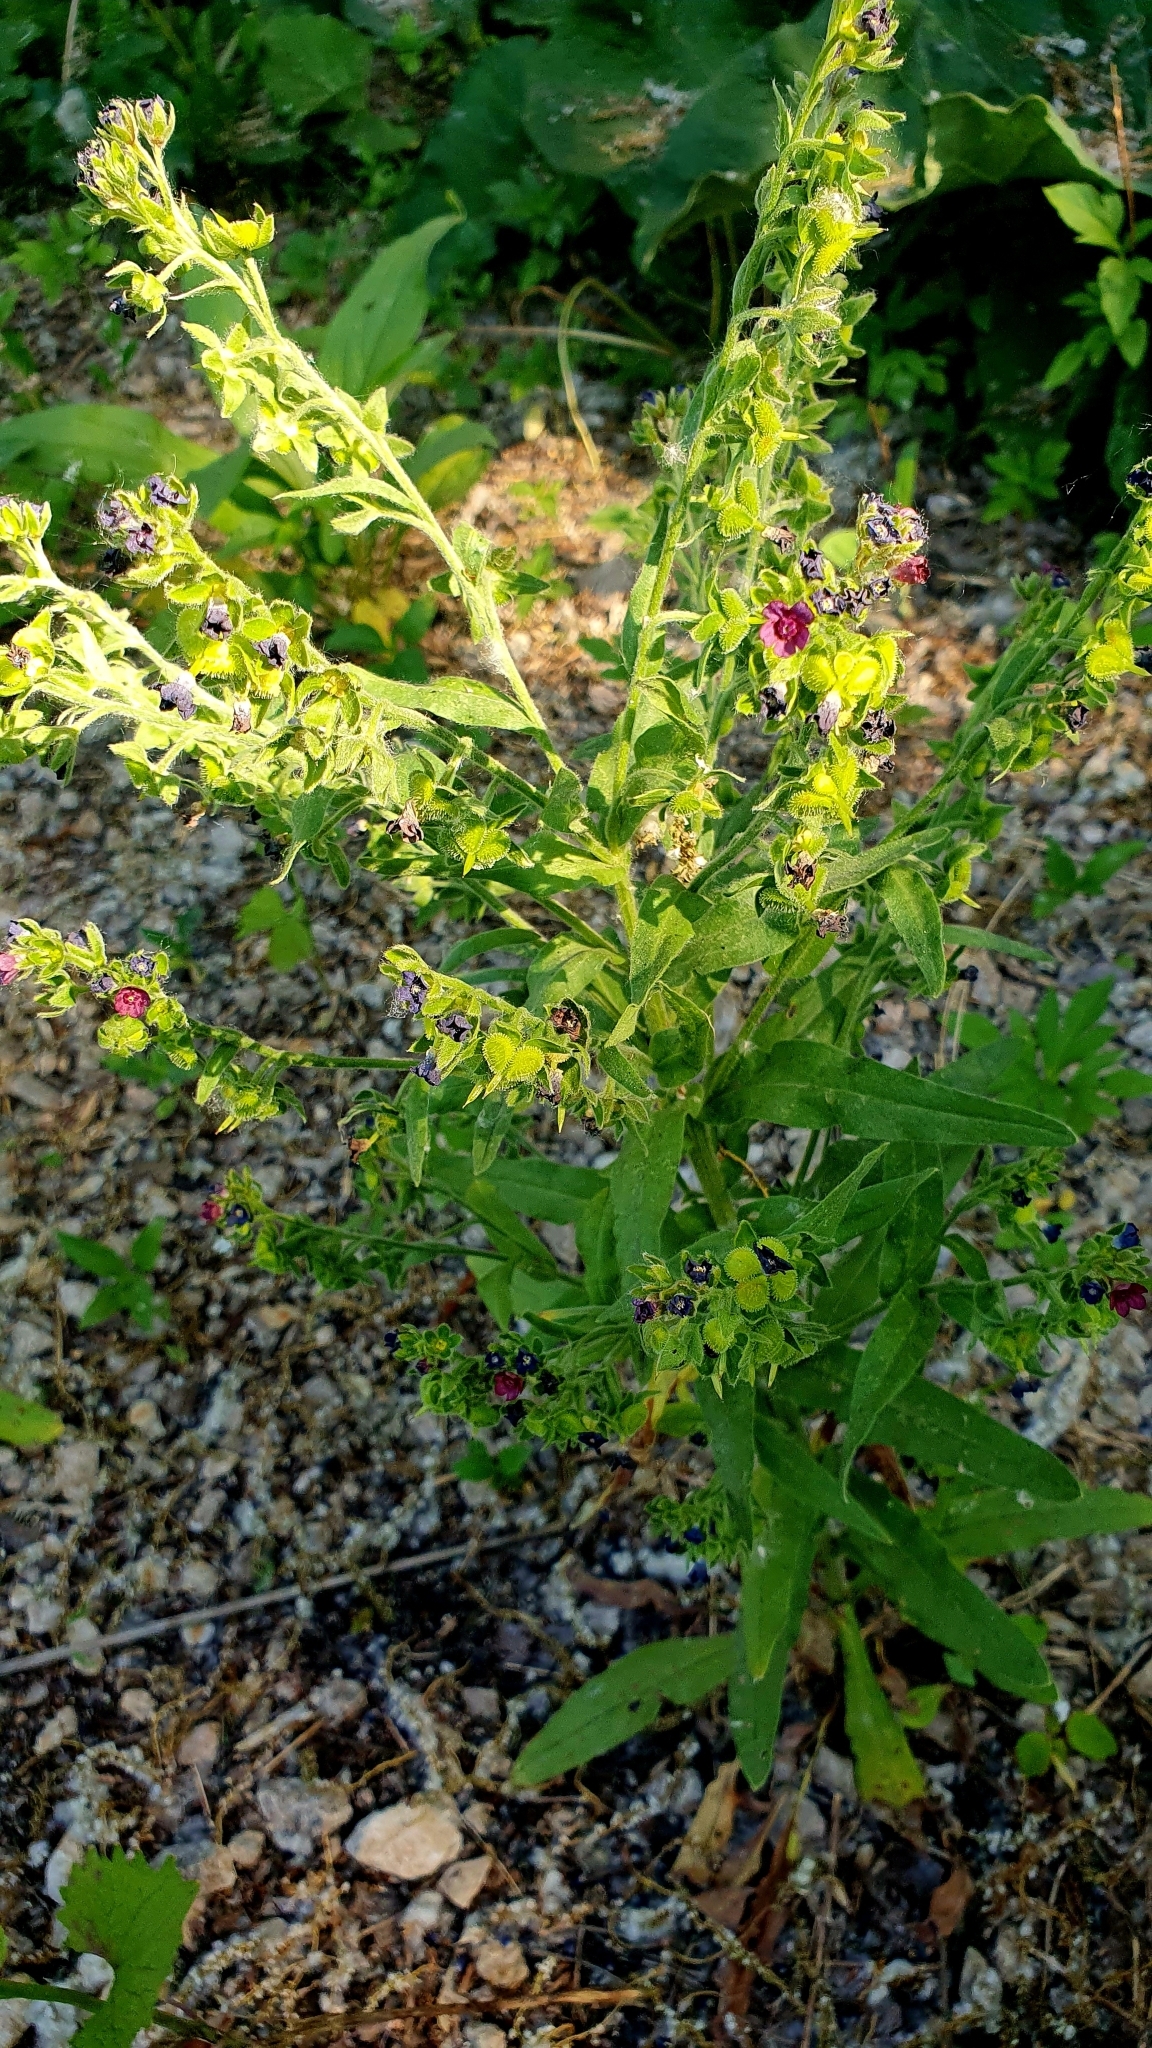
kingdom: Plantae
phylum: Tracheophyta
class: Magnoliopsida
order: Boraginales
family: Boraginaceae
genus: Cynoglossum
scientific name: Cynoglossum officinale
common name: Hound's-tongue
